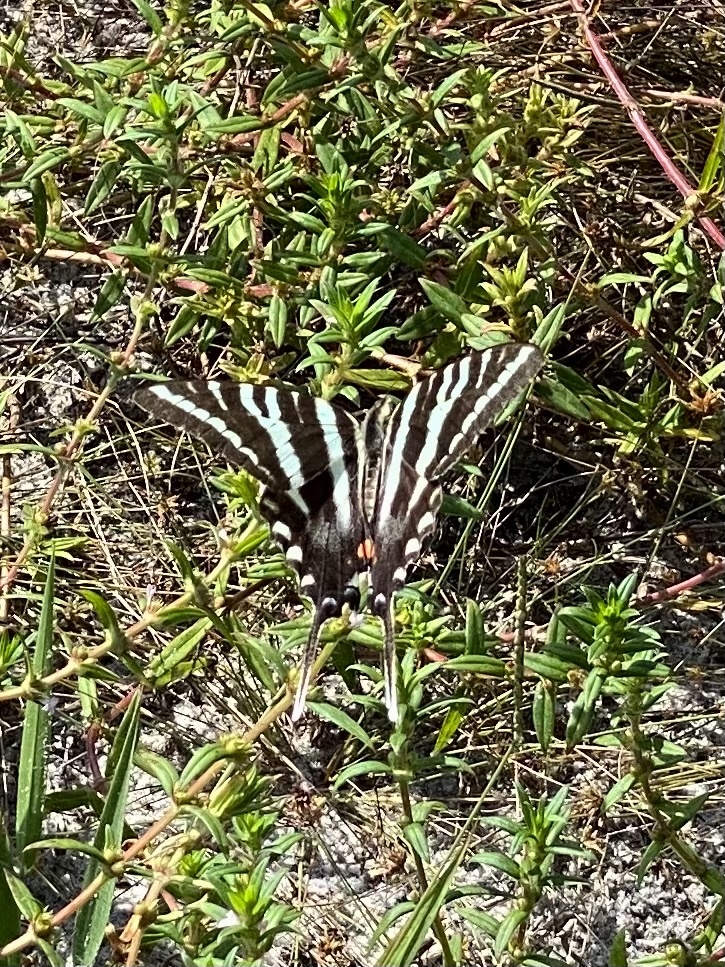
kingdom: Animalia
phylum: Arthropoda
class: Insecta
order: Lepidoptera
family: Papilionidae
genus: Protographium
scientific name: Protographium marcellus
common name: Zebra swallowtail
